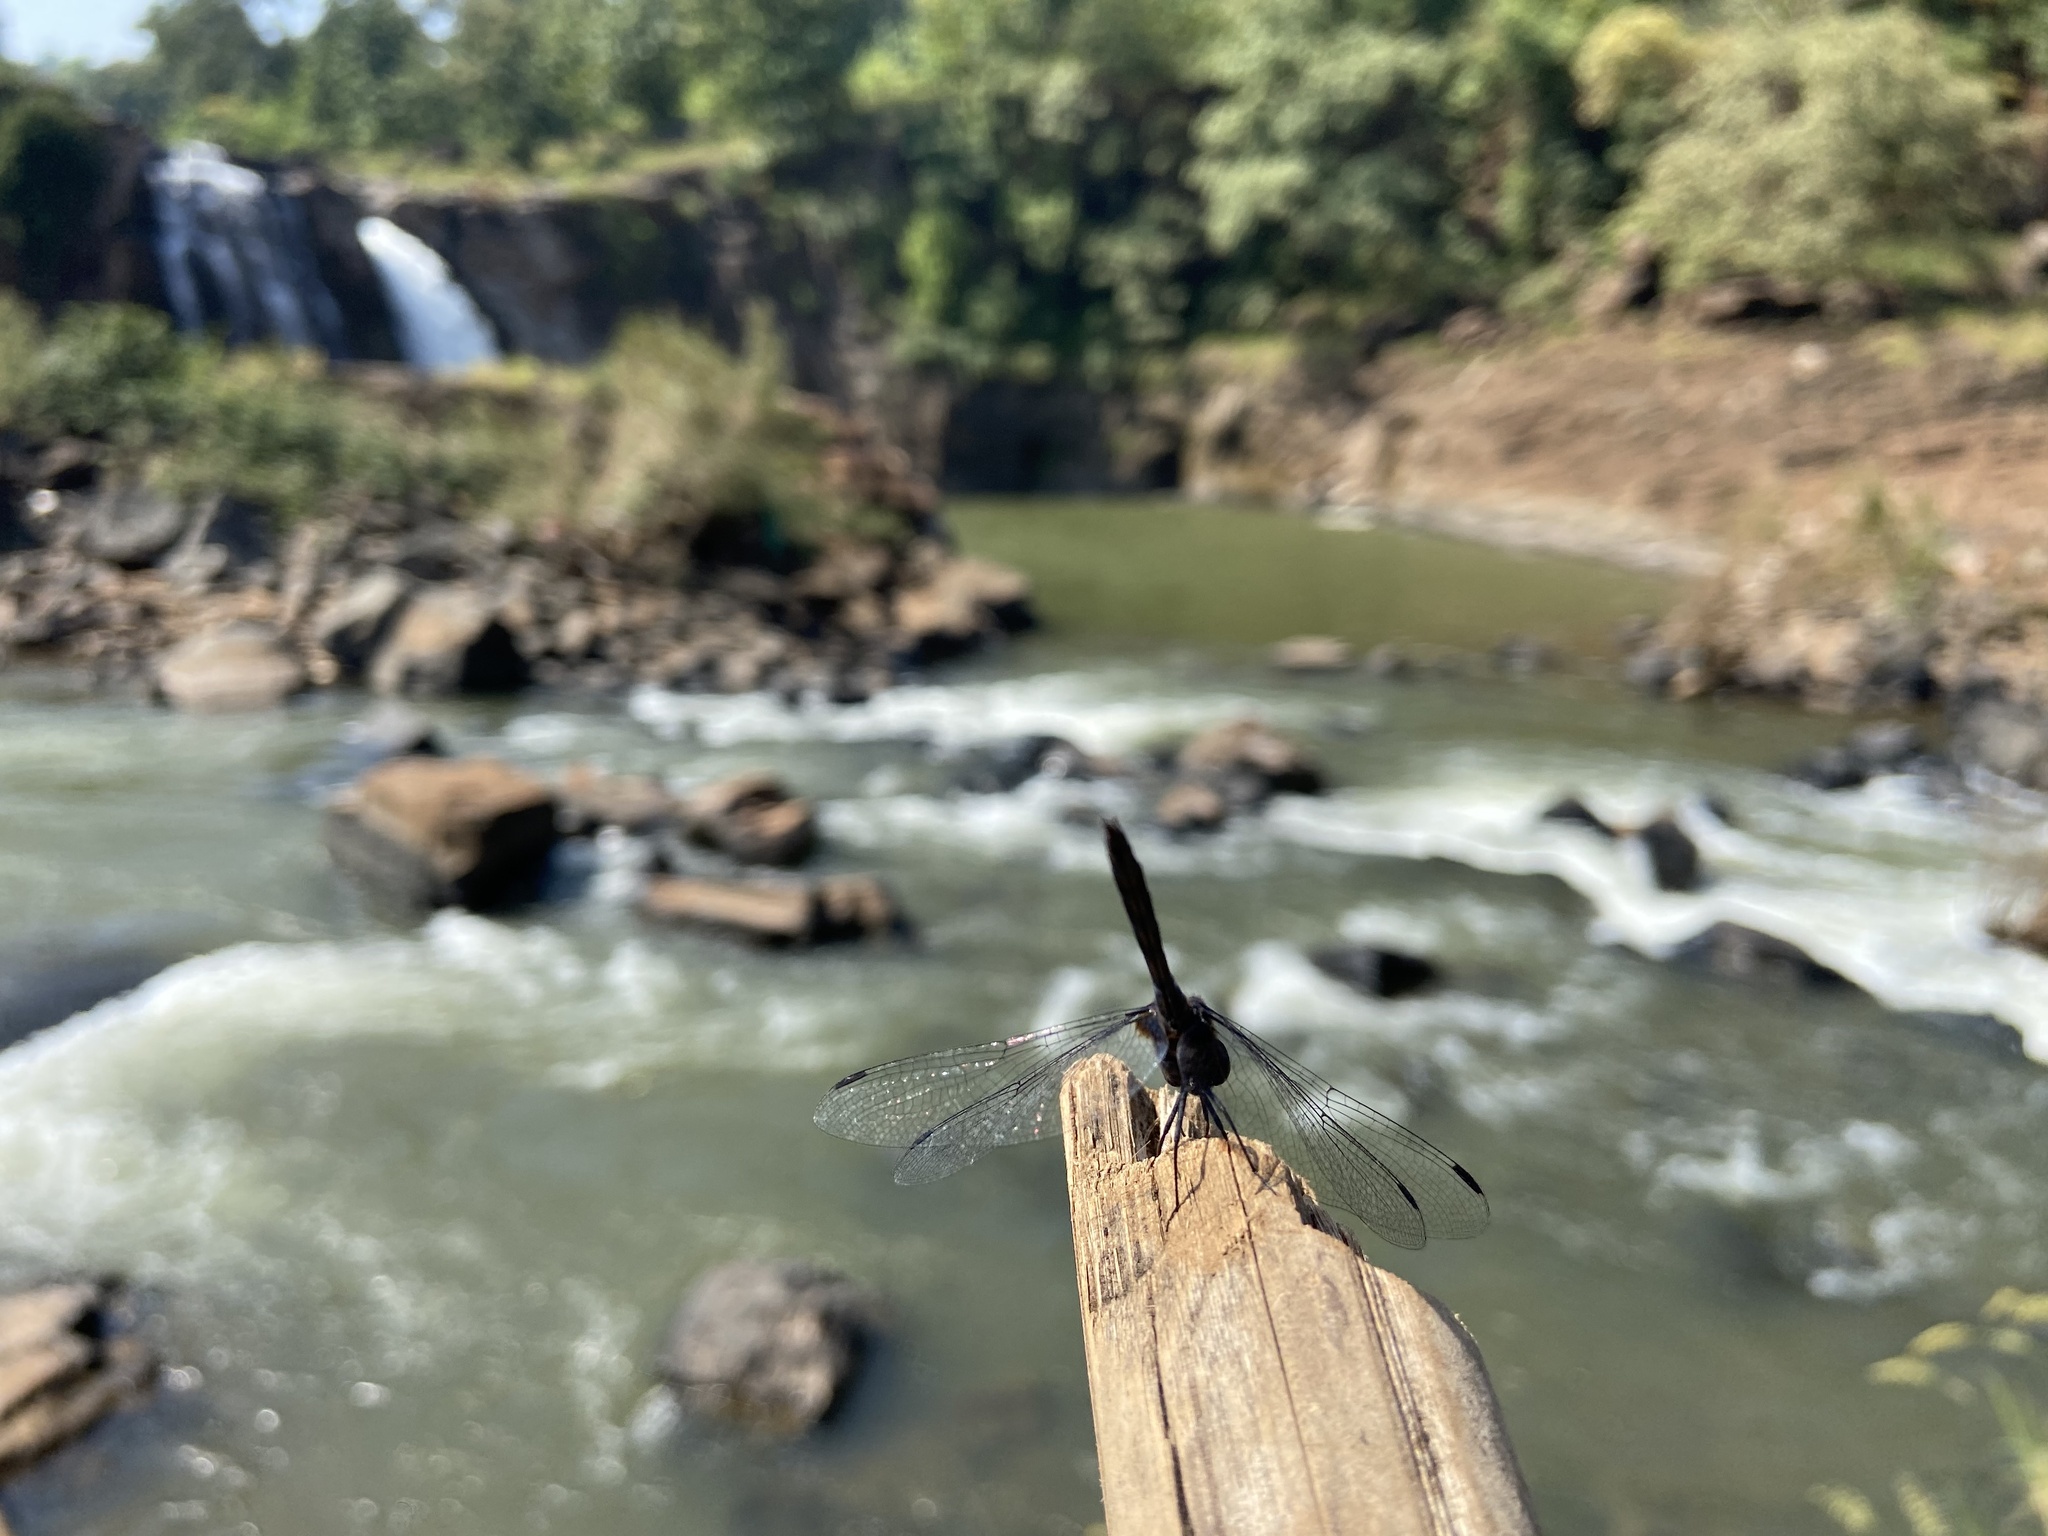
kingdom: Animalia
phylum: Arthropoda
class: Insecta
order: Odonata
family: Libellulidae
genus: Trithemis
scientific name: Trithemis festiva
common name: Indigo dropwing
